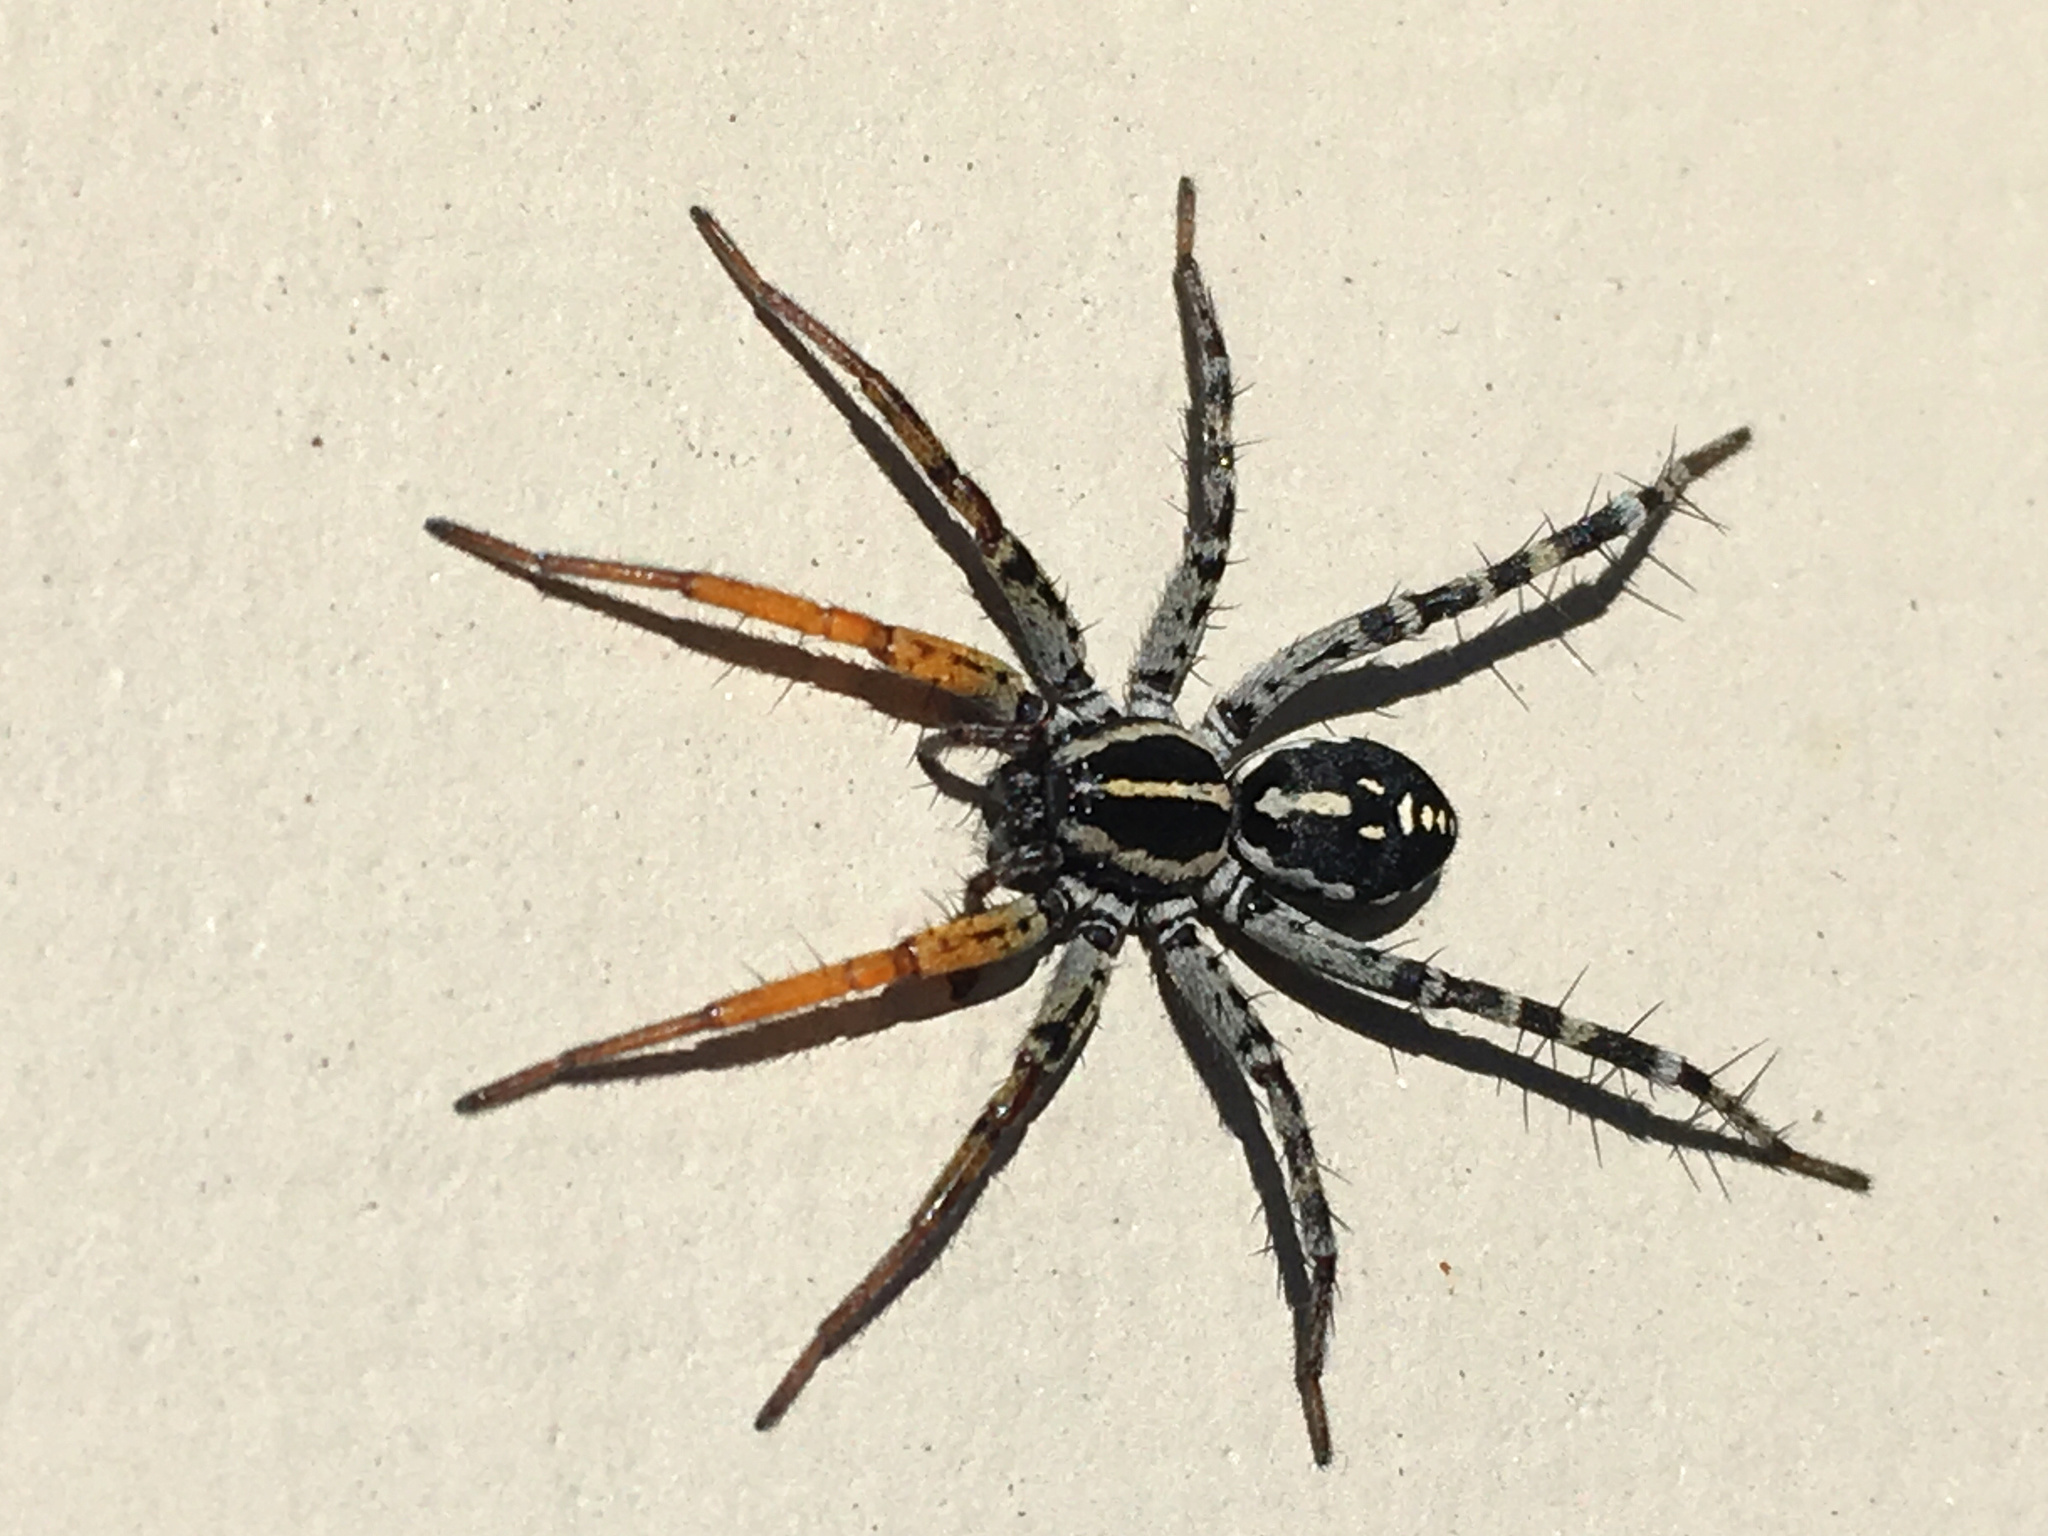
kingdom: Animalia
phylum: Arthropoda
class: Arachnida
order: Araneae
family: Corinnidae
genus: Nyssus
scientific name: Nyssus coloripes
